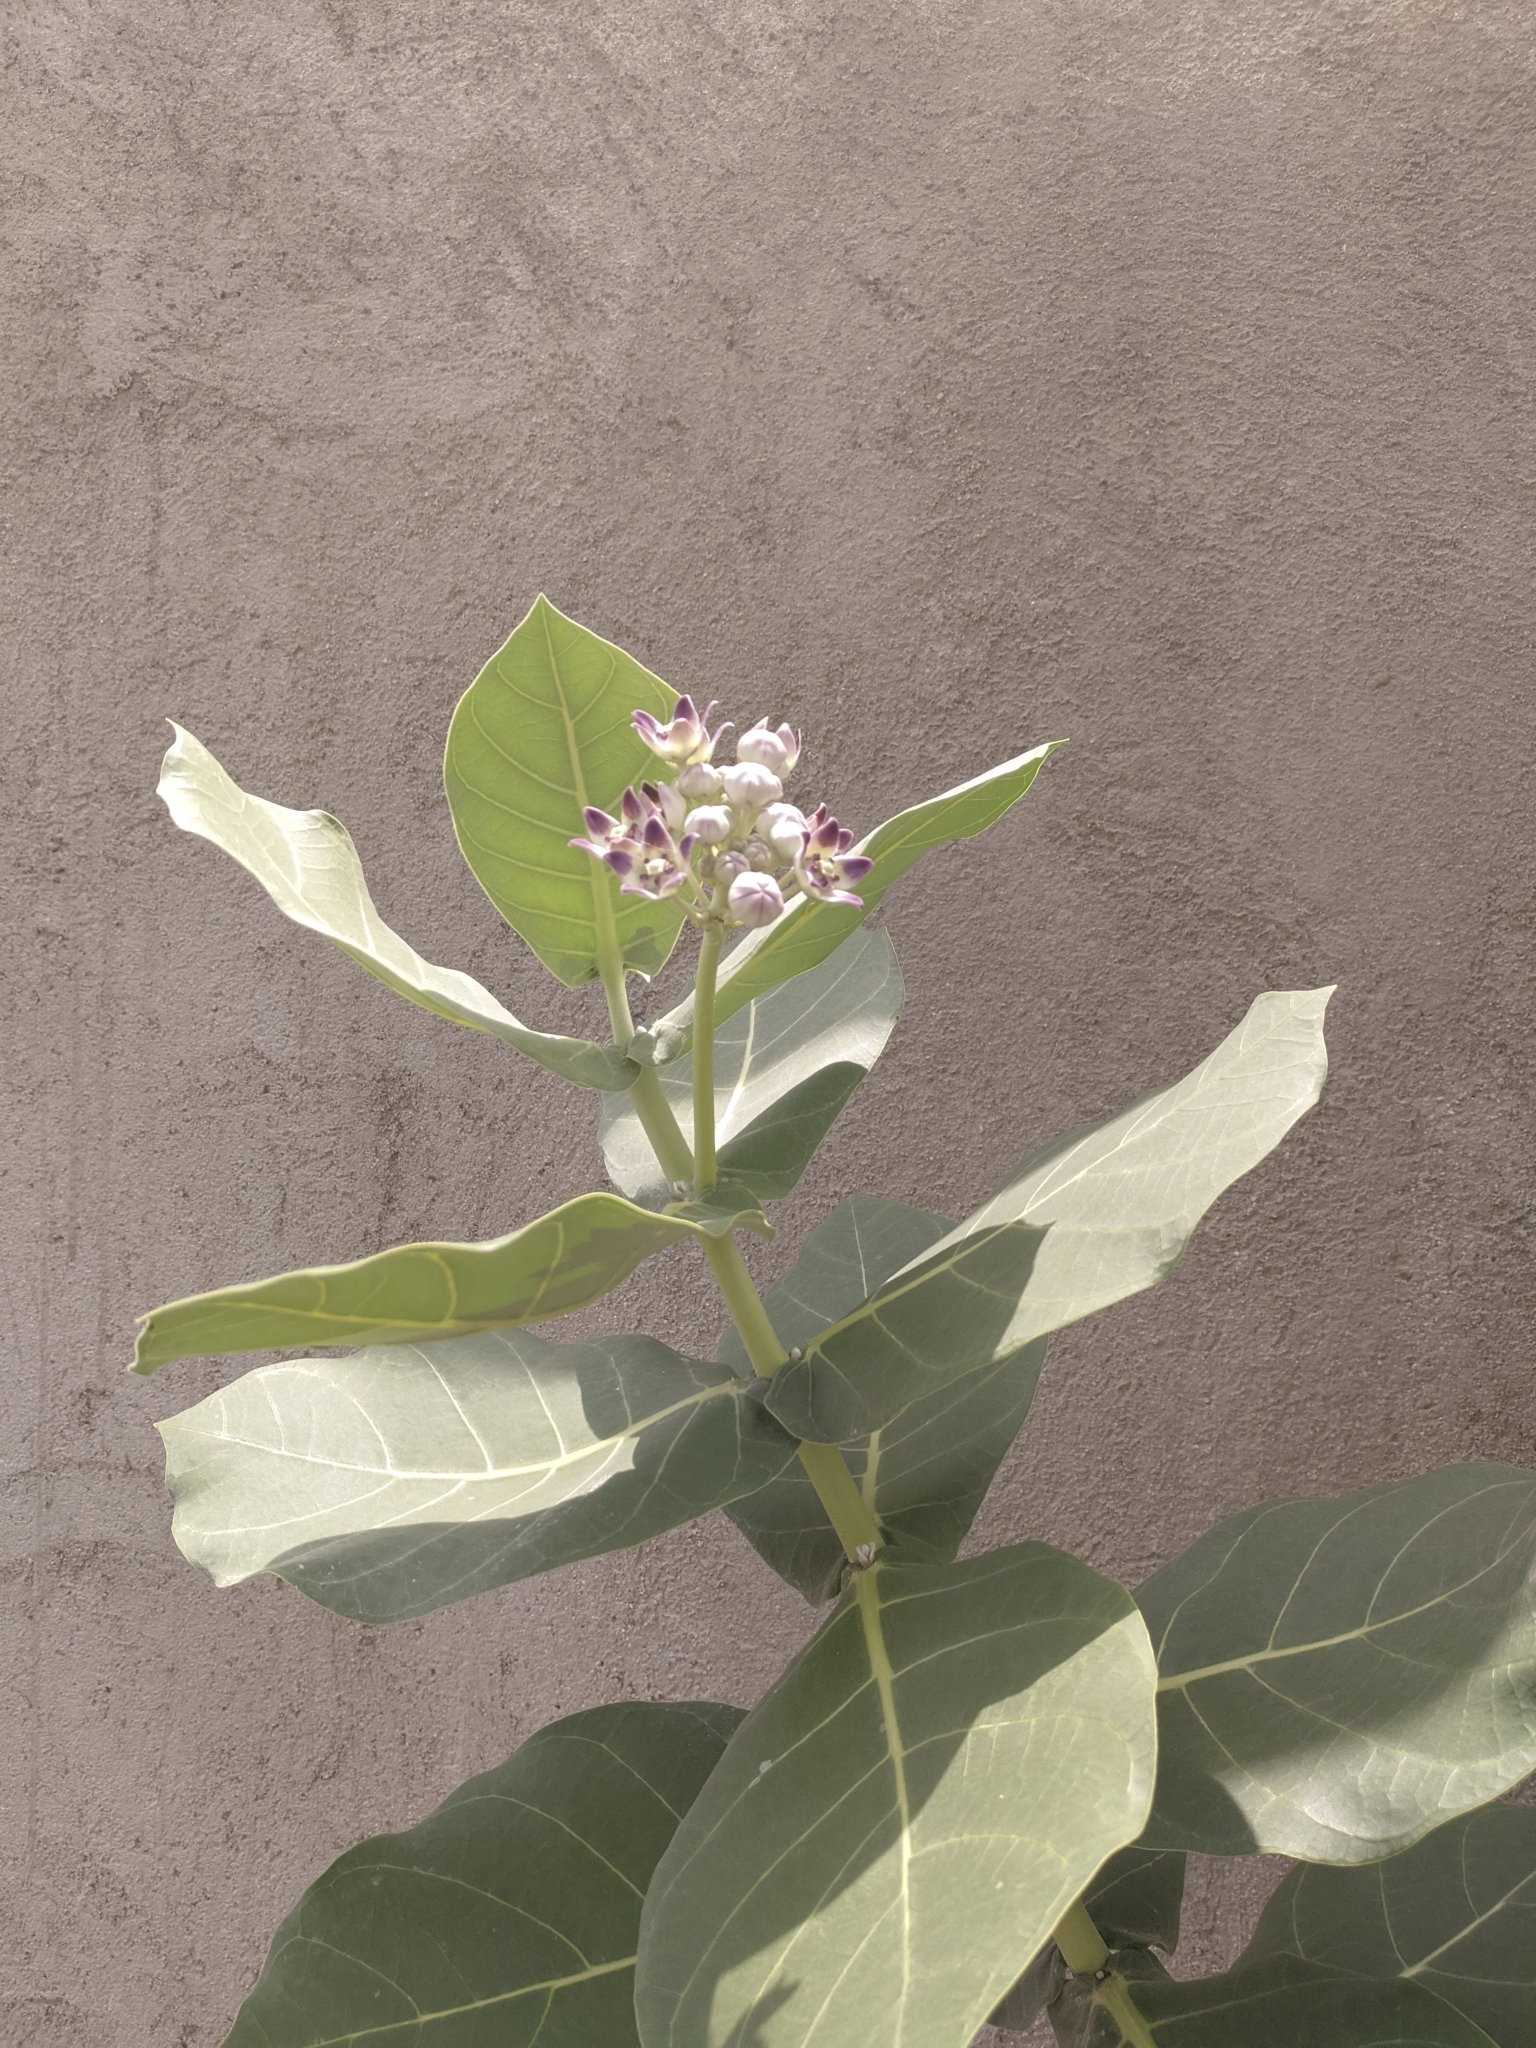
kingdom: Plantae
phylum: Tracheophyta
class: Magnoliopsida
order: Gentianales
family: Apocynaceae
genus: Calotropis
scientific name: Calotropis procera
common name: Roostertree
